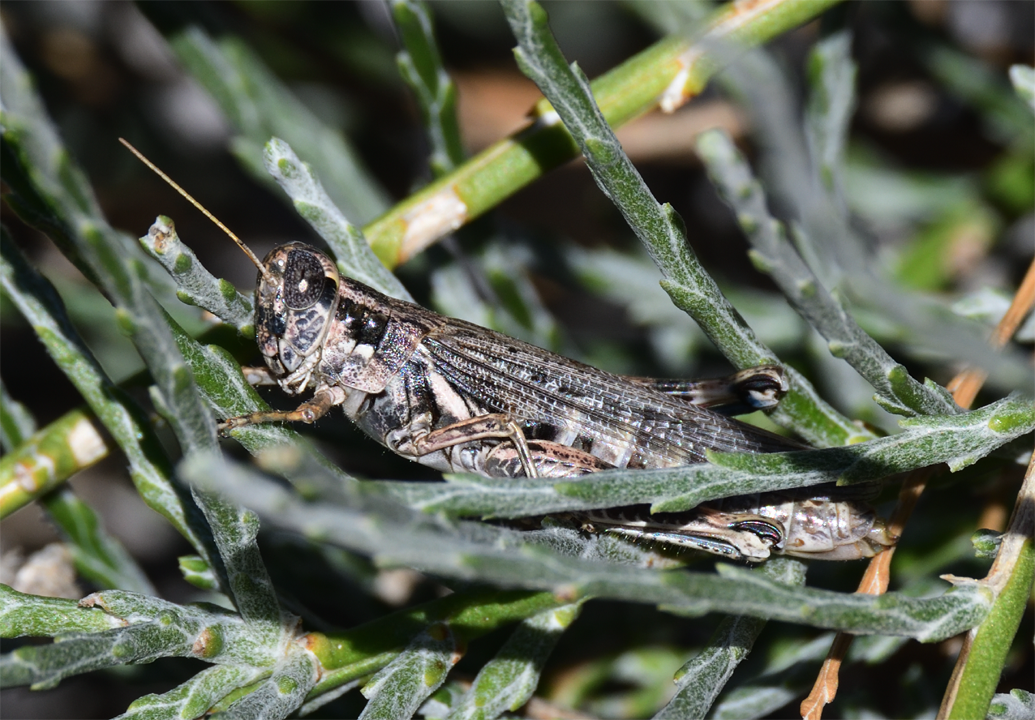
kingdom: Animalia
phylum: Arthropoda
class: Insecta
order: Orthoptera
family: Acrididae
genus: Melanoplus
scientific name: Melanoplus complanatipes
